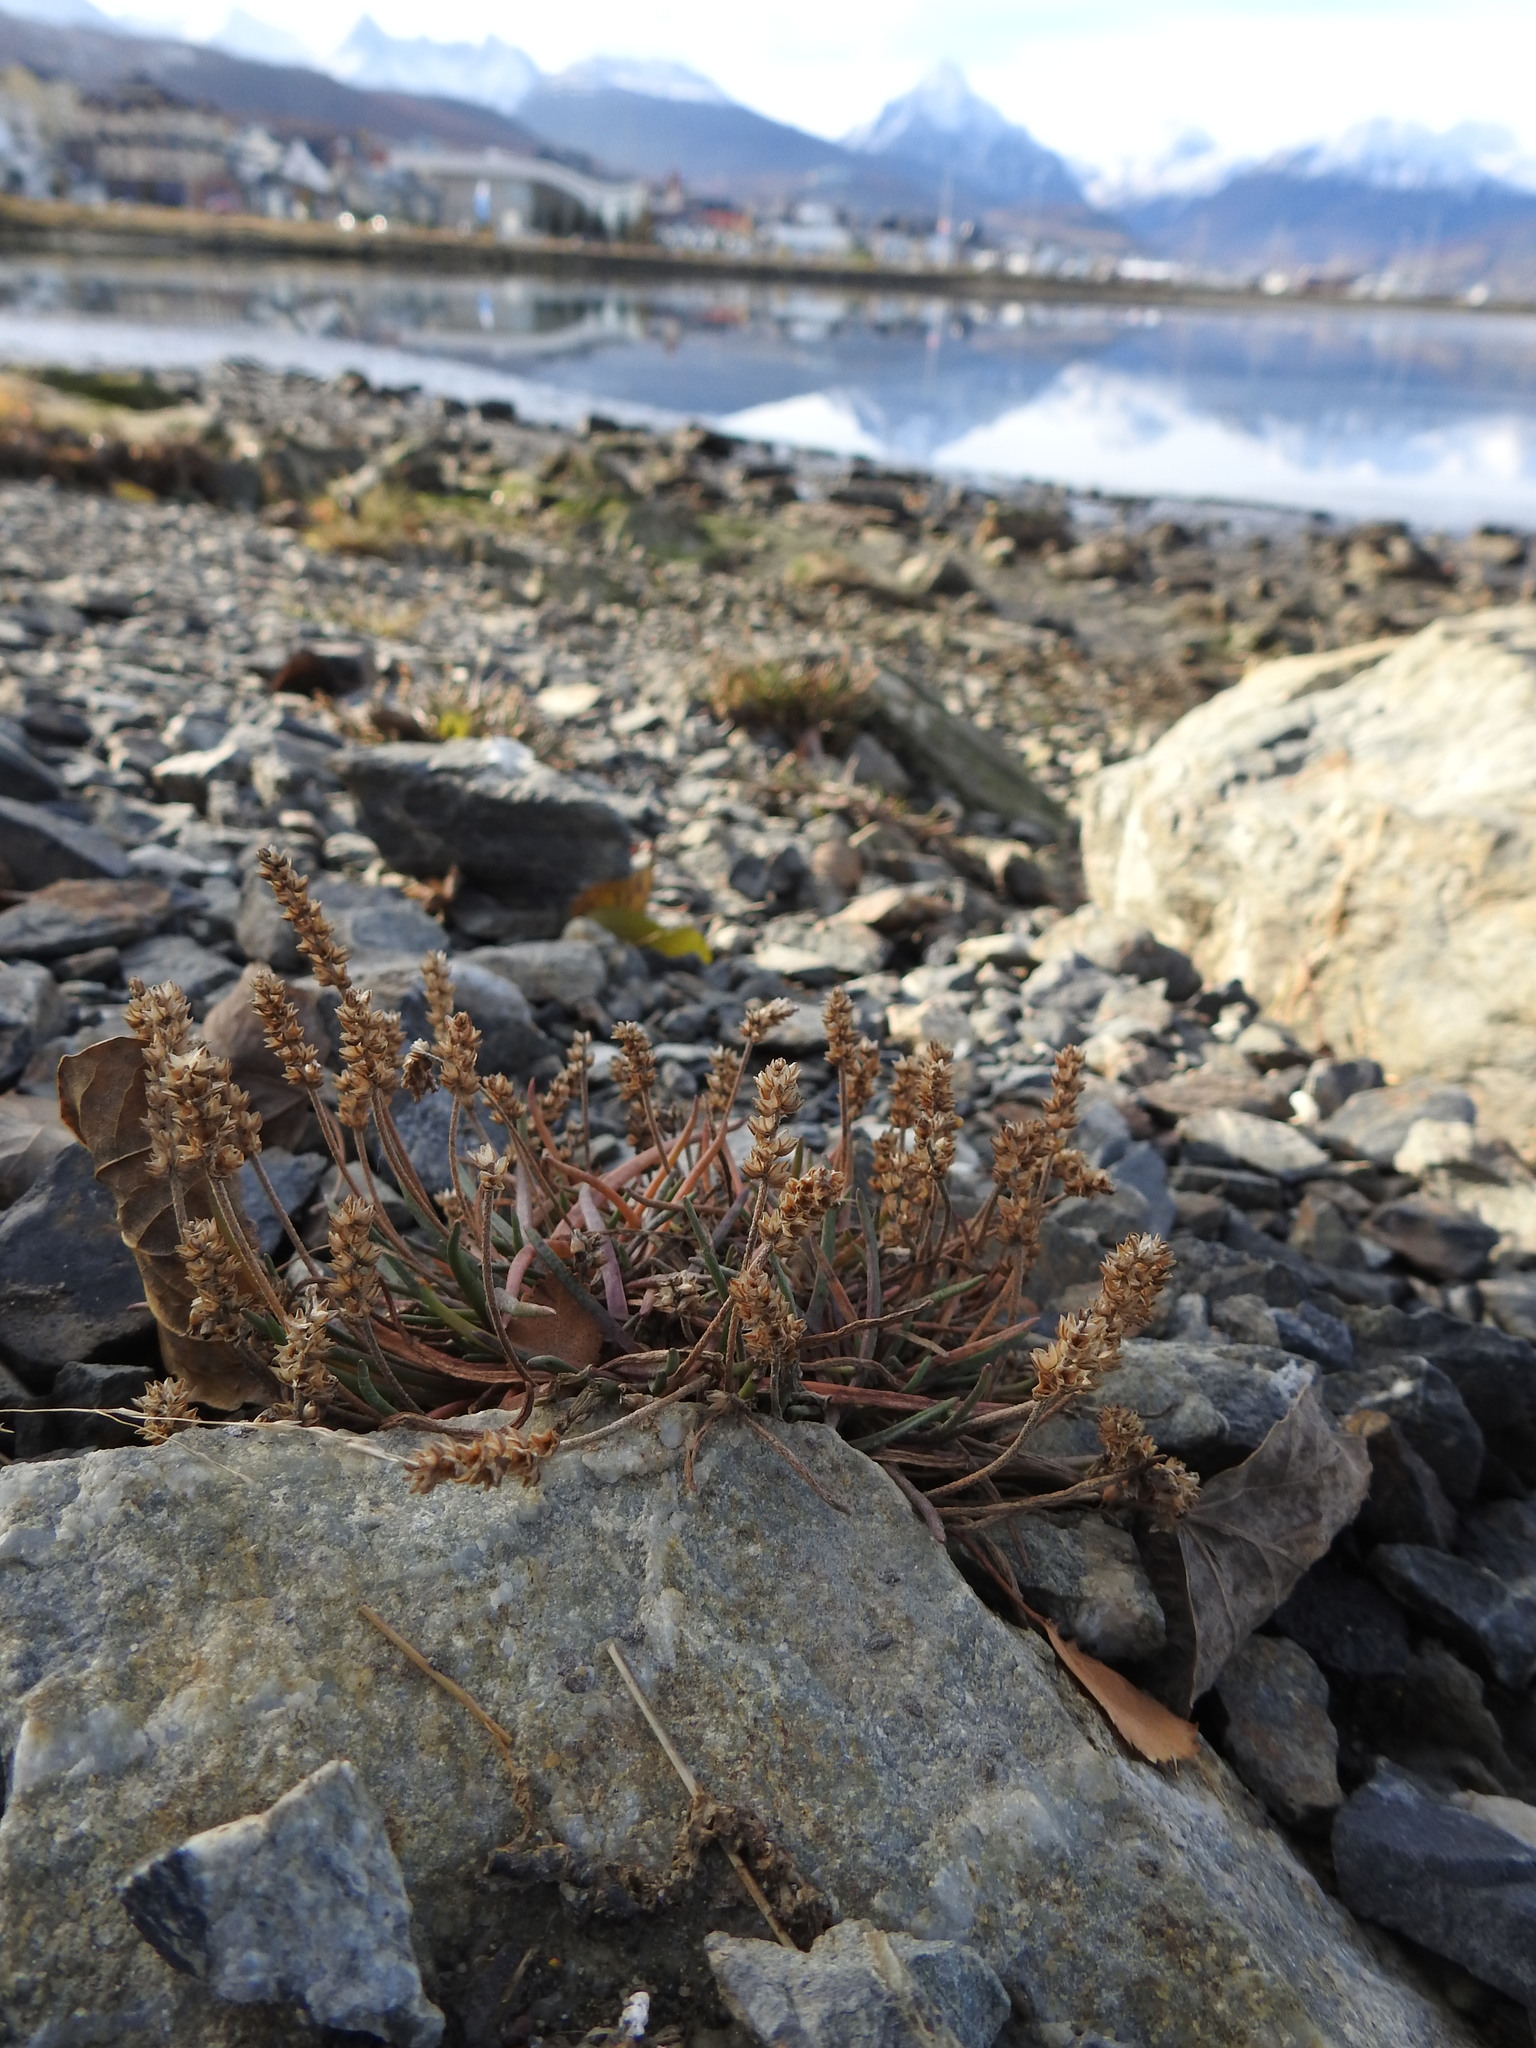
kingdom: Plantae
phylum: Tracheophyta
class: Magnoliopsida
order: Lamiales
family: Plantaginaceae
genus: Plantago
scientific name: Plantago maritima
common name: Sea plantain
